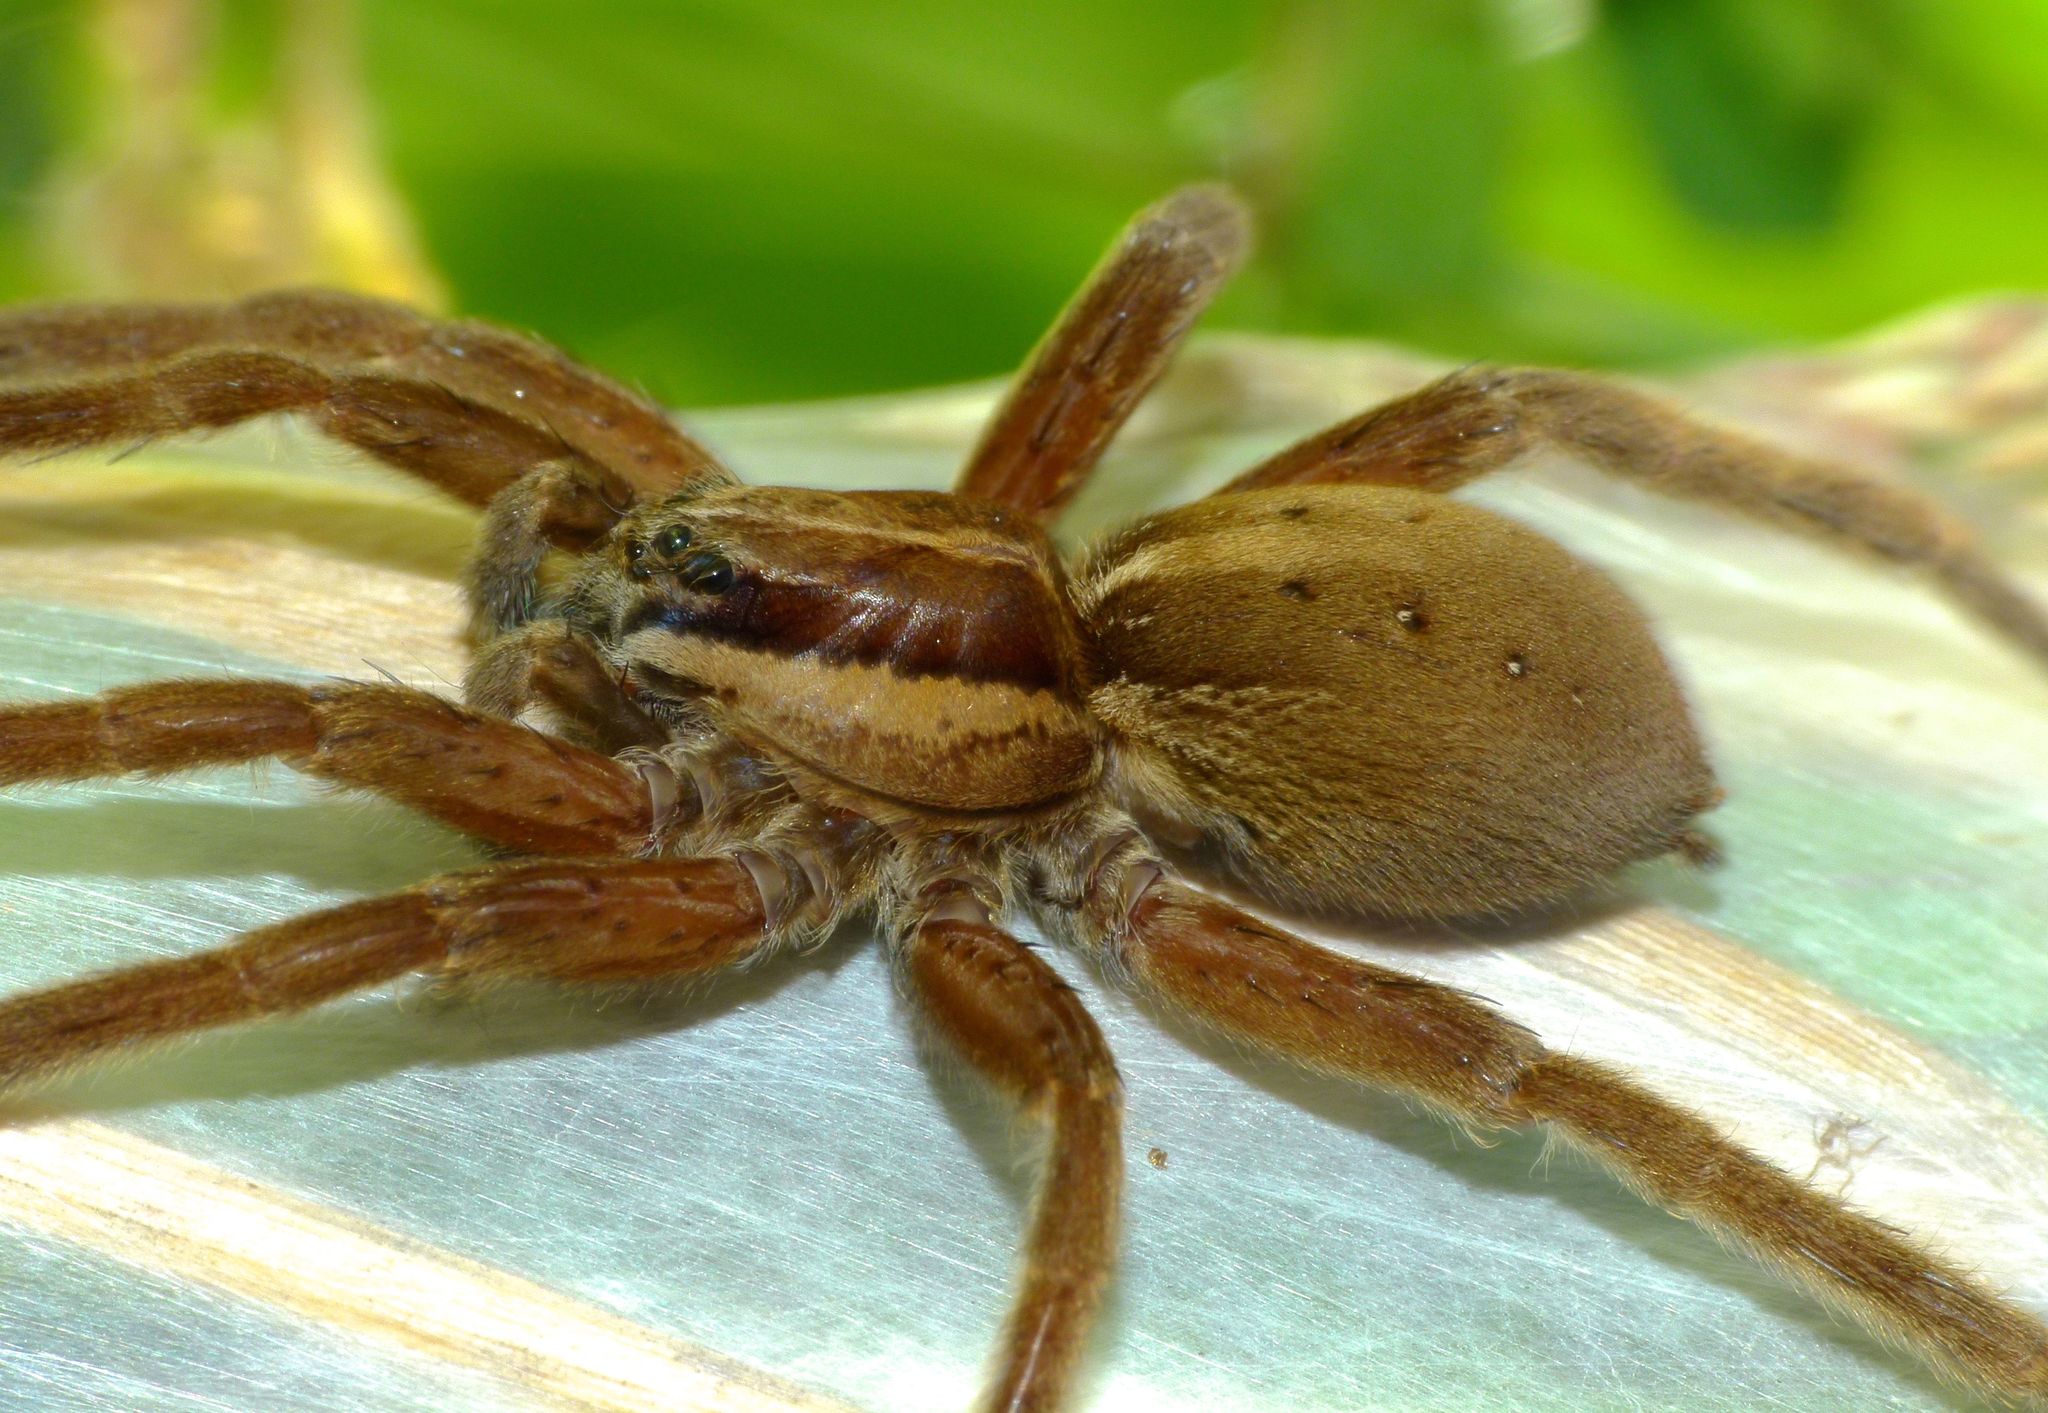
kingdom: Animalia
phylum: Arthropoda
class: Arachnida
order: Araneae
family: Pisauridae
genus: Dolomedes
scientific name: Dolomedes minor
